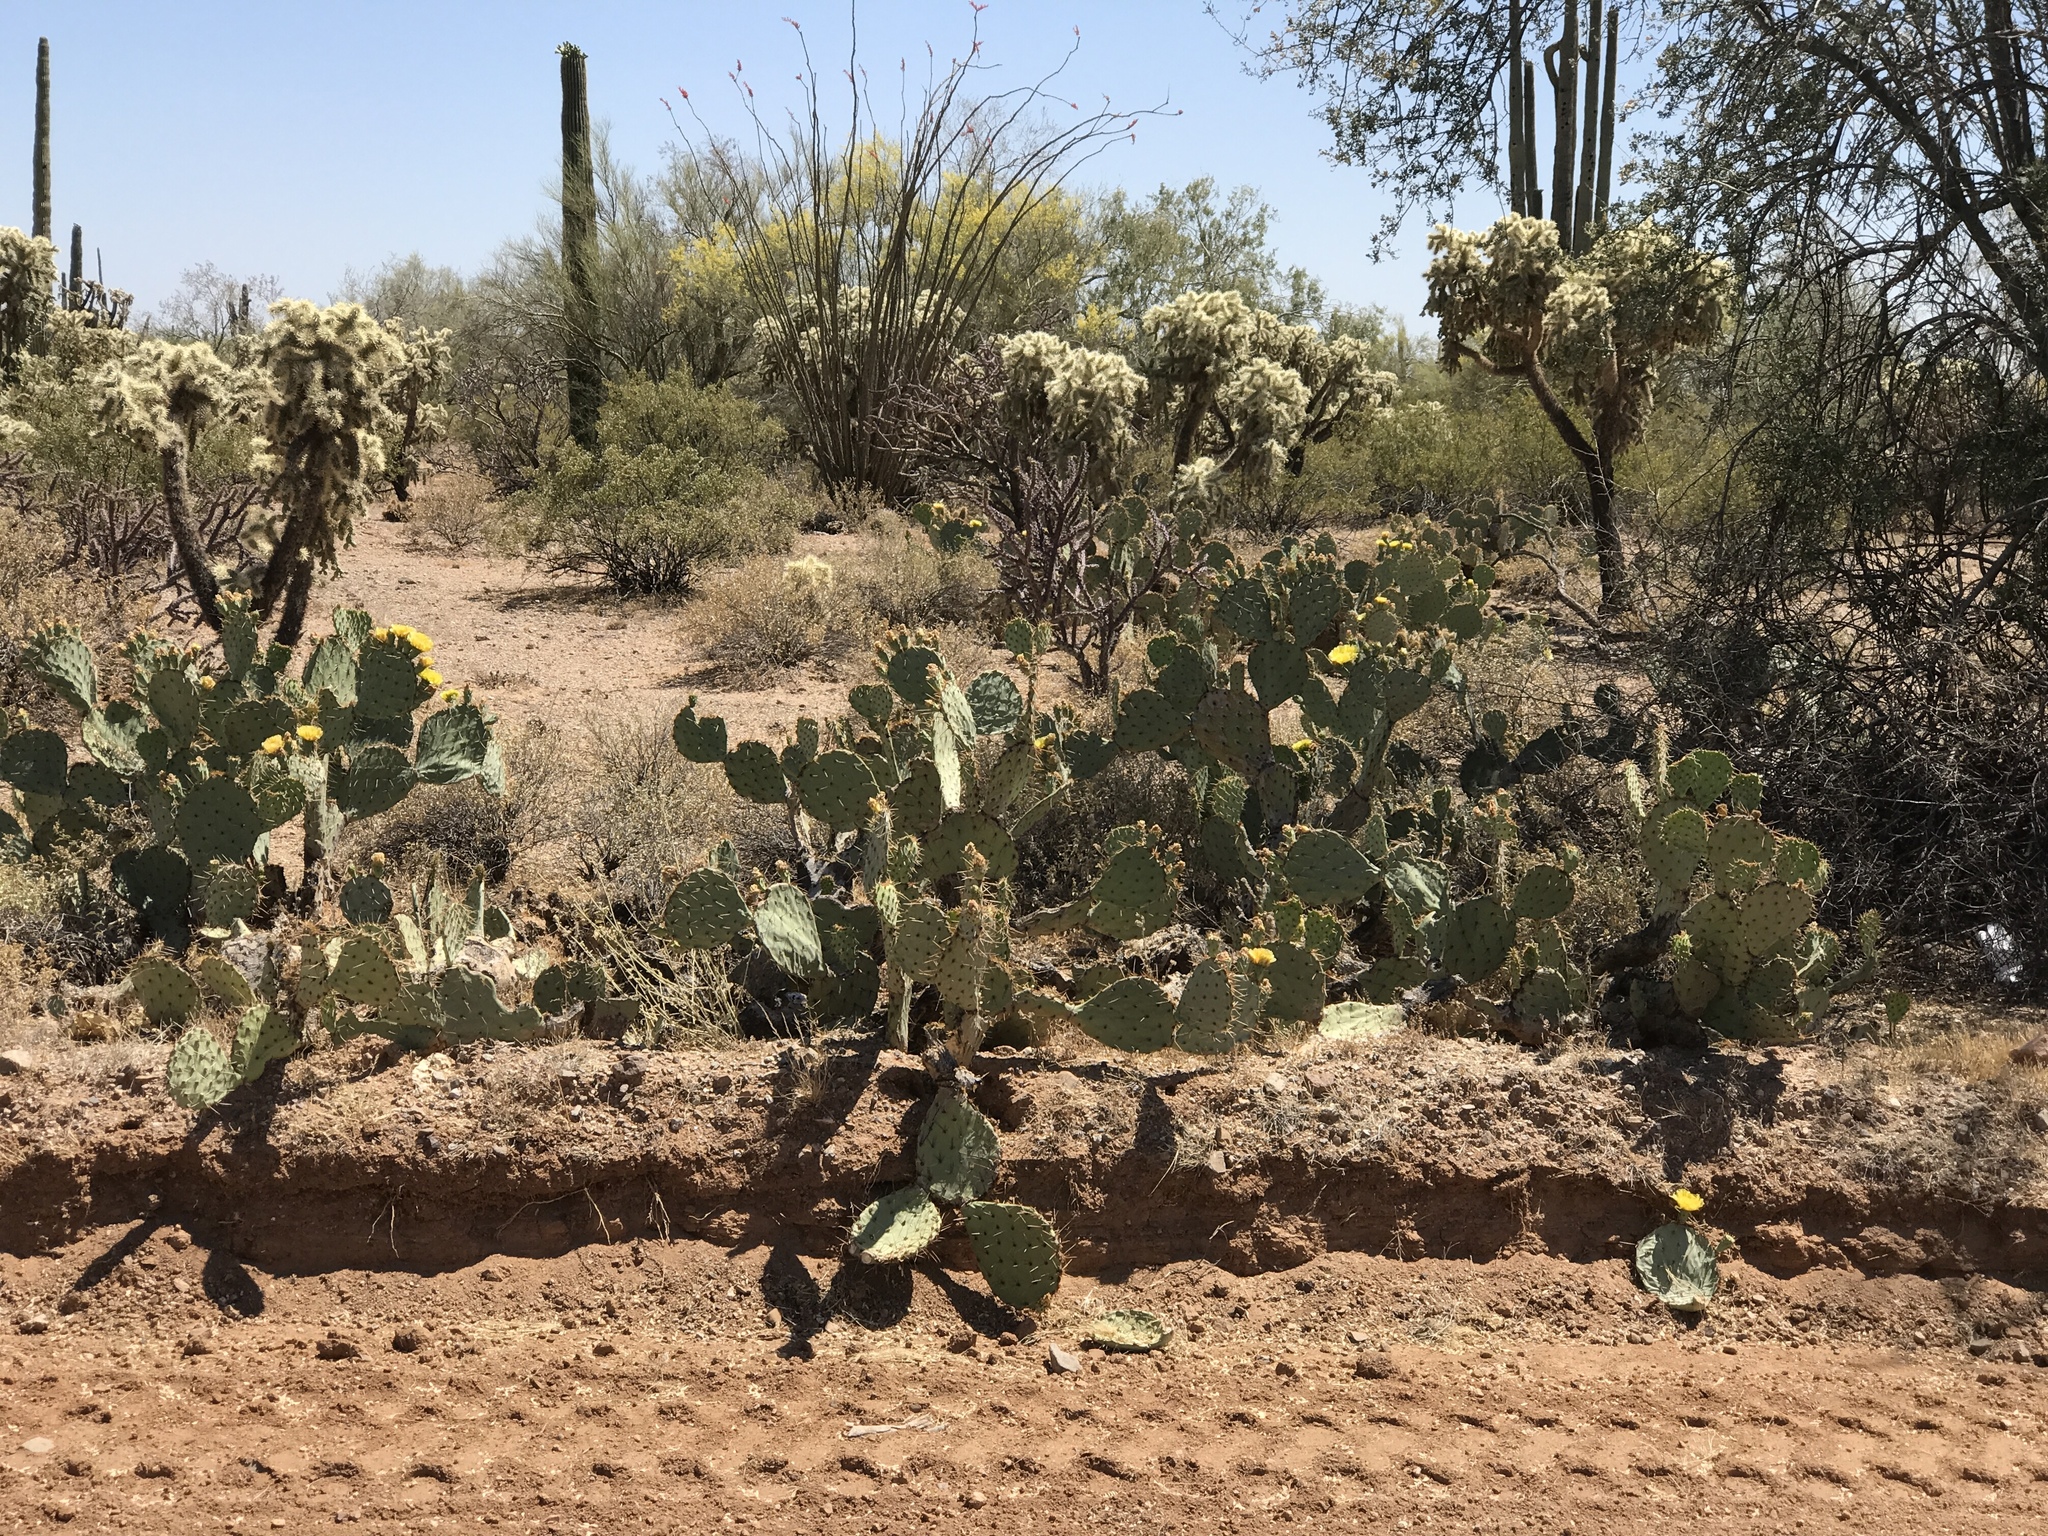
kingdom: Plantae
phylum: Tracheophyta
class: Magnoliopsida
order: Caryophyllales
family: Cactaceae
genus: Opuntia
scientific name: Opuntia engelmannii
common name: Cactus-apple
